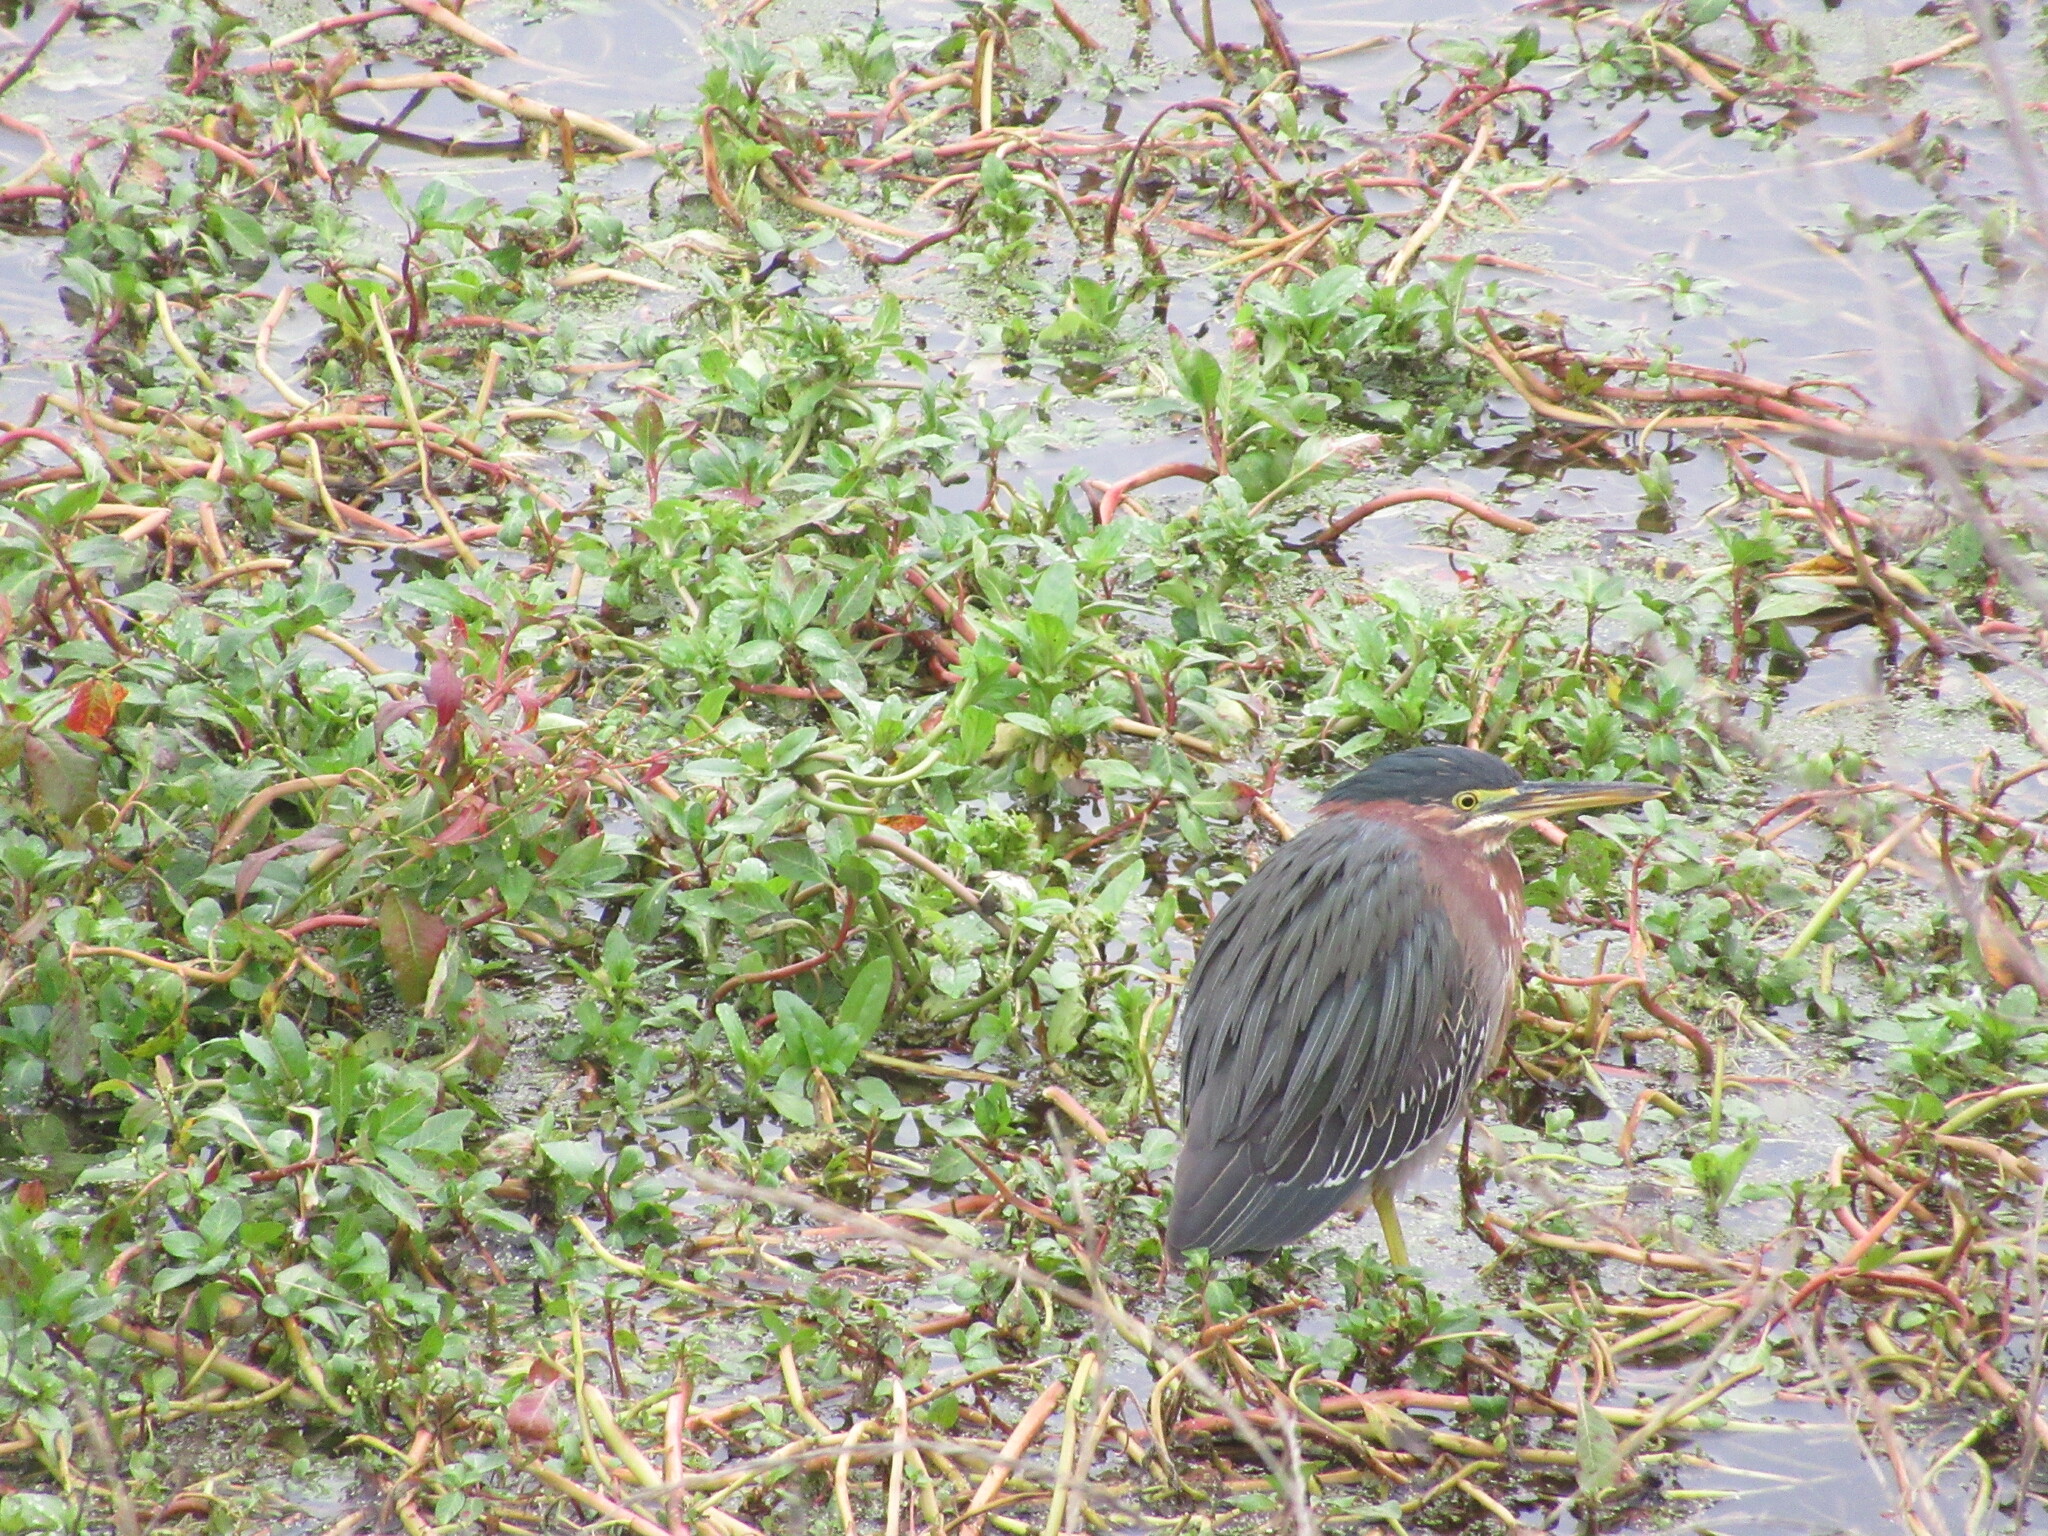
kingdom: Animalia
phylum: Chordata
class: Aves
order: Pelecaniformes
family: Ardeidae
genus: Butorides
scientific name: Butorides virescens
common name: Green heron
